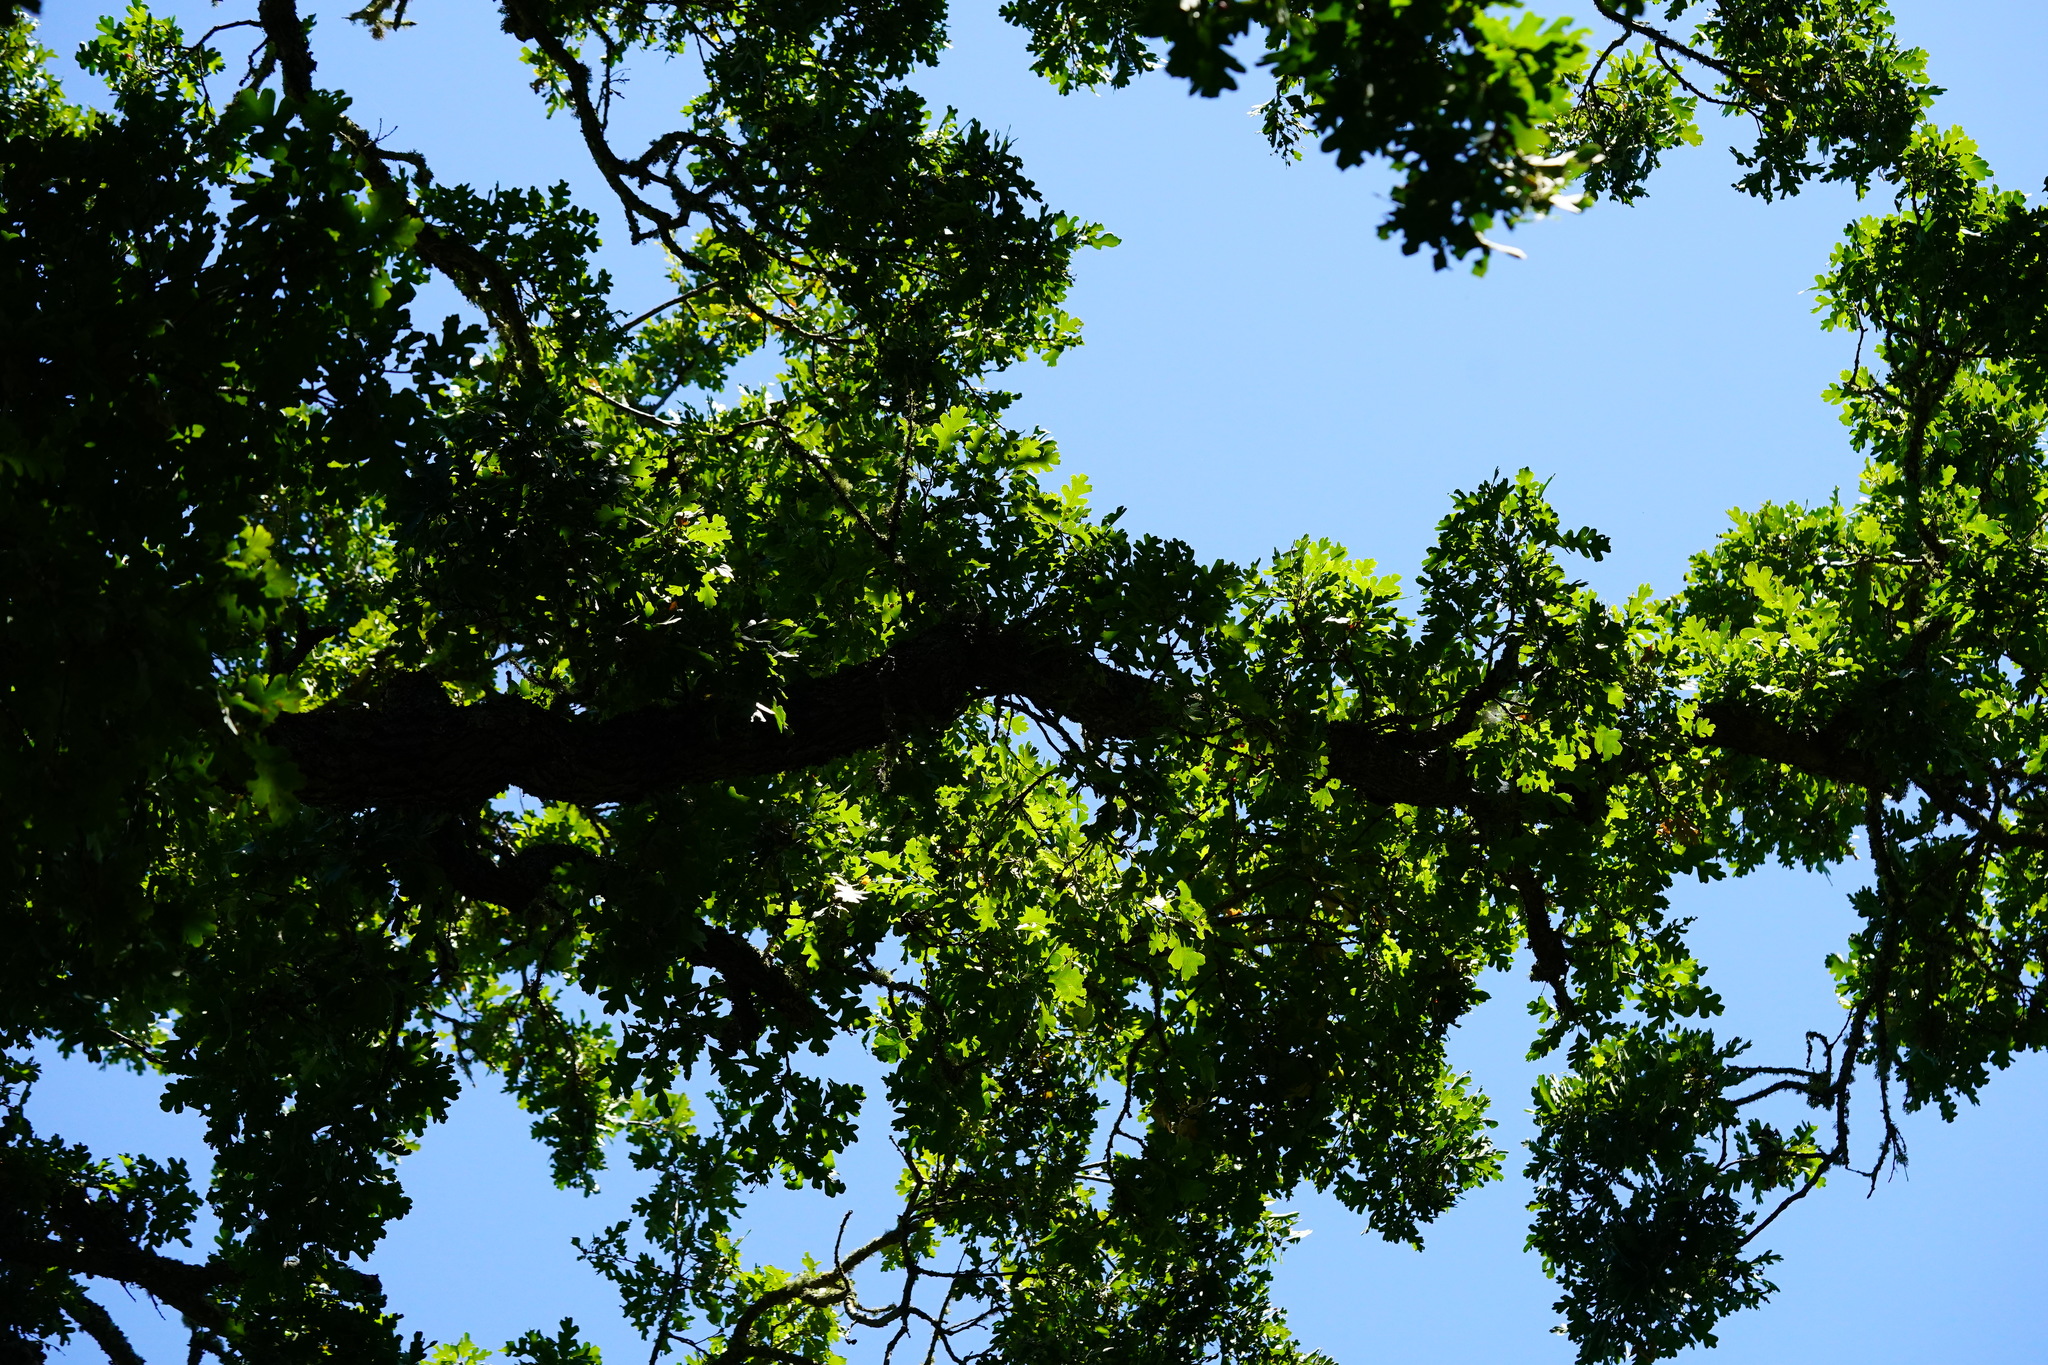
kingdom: Plantae
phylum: Tracheophyta
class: Magnoliopsida
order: Fagales
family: Fagaceae
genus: Quercus
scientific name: Quercus lobata
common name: Valley oak
